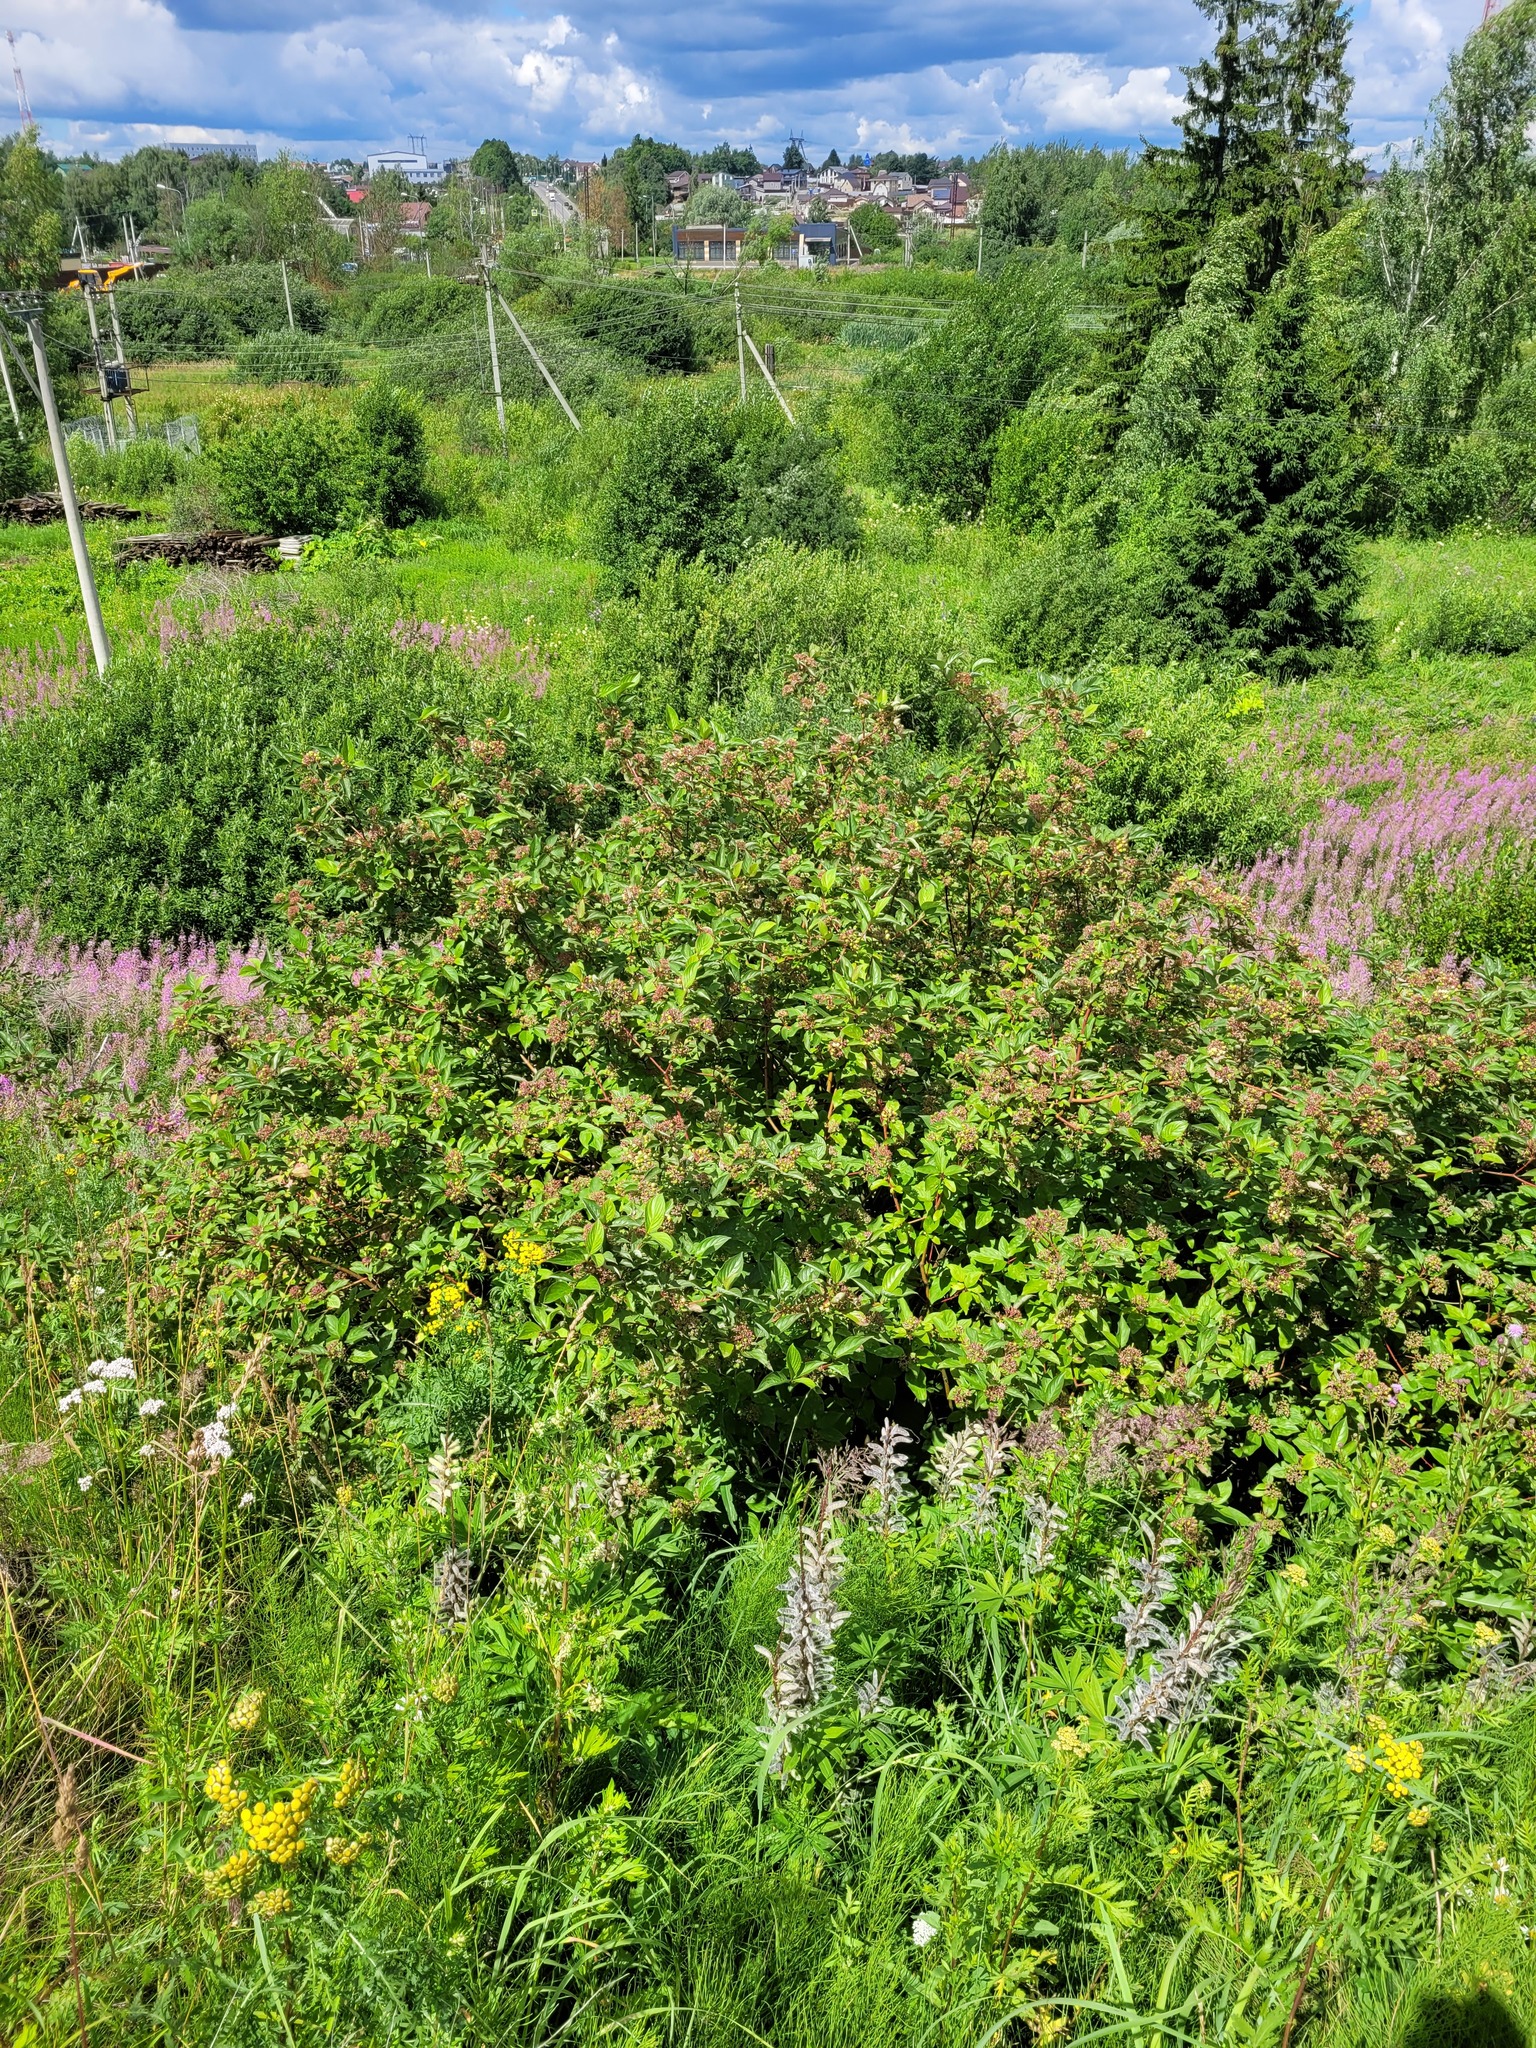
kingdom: Plantae
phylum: Tracheophyta
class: Magnoliopsida
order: Cornales
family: Cornaceae
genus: Cornus
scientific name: Cornus alba
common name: White dogwood
